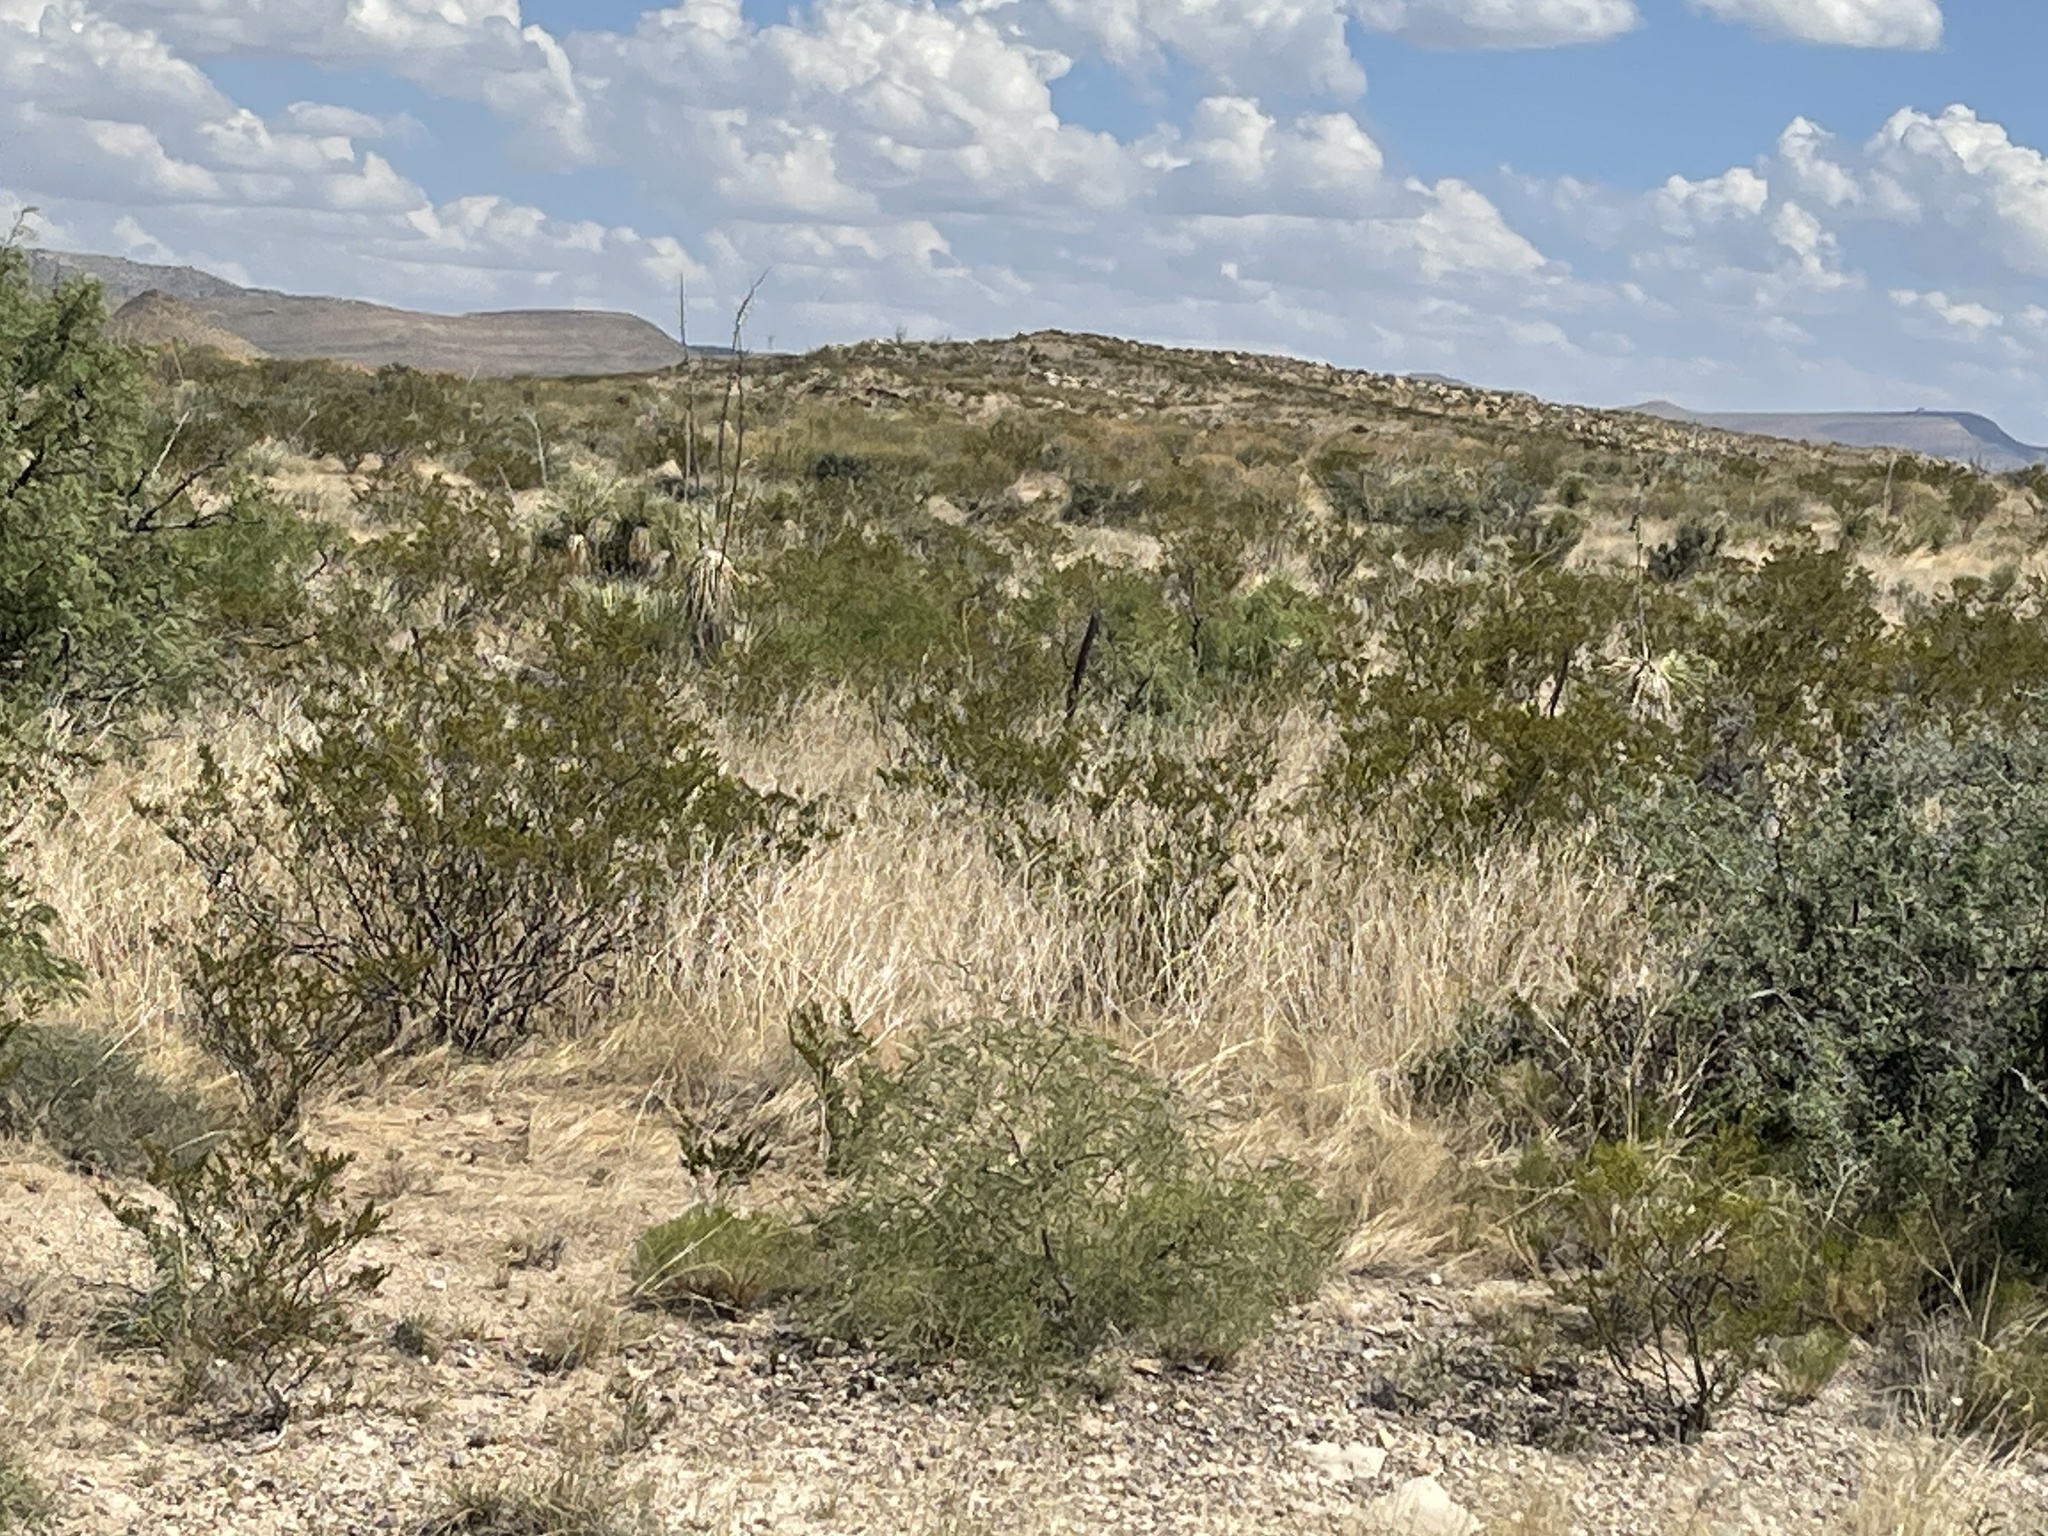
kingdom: Plantae
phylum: Tracheophyta
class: Magnoliopsida
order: Zygophyllales
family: Zygophyllaceae
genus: Larrea
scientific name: Larrea tridentata
